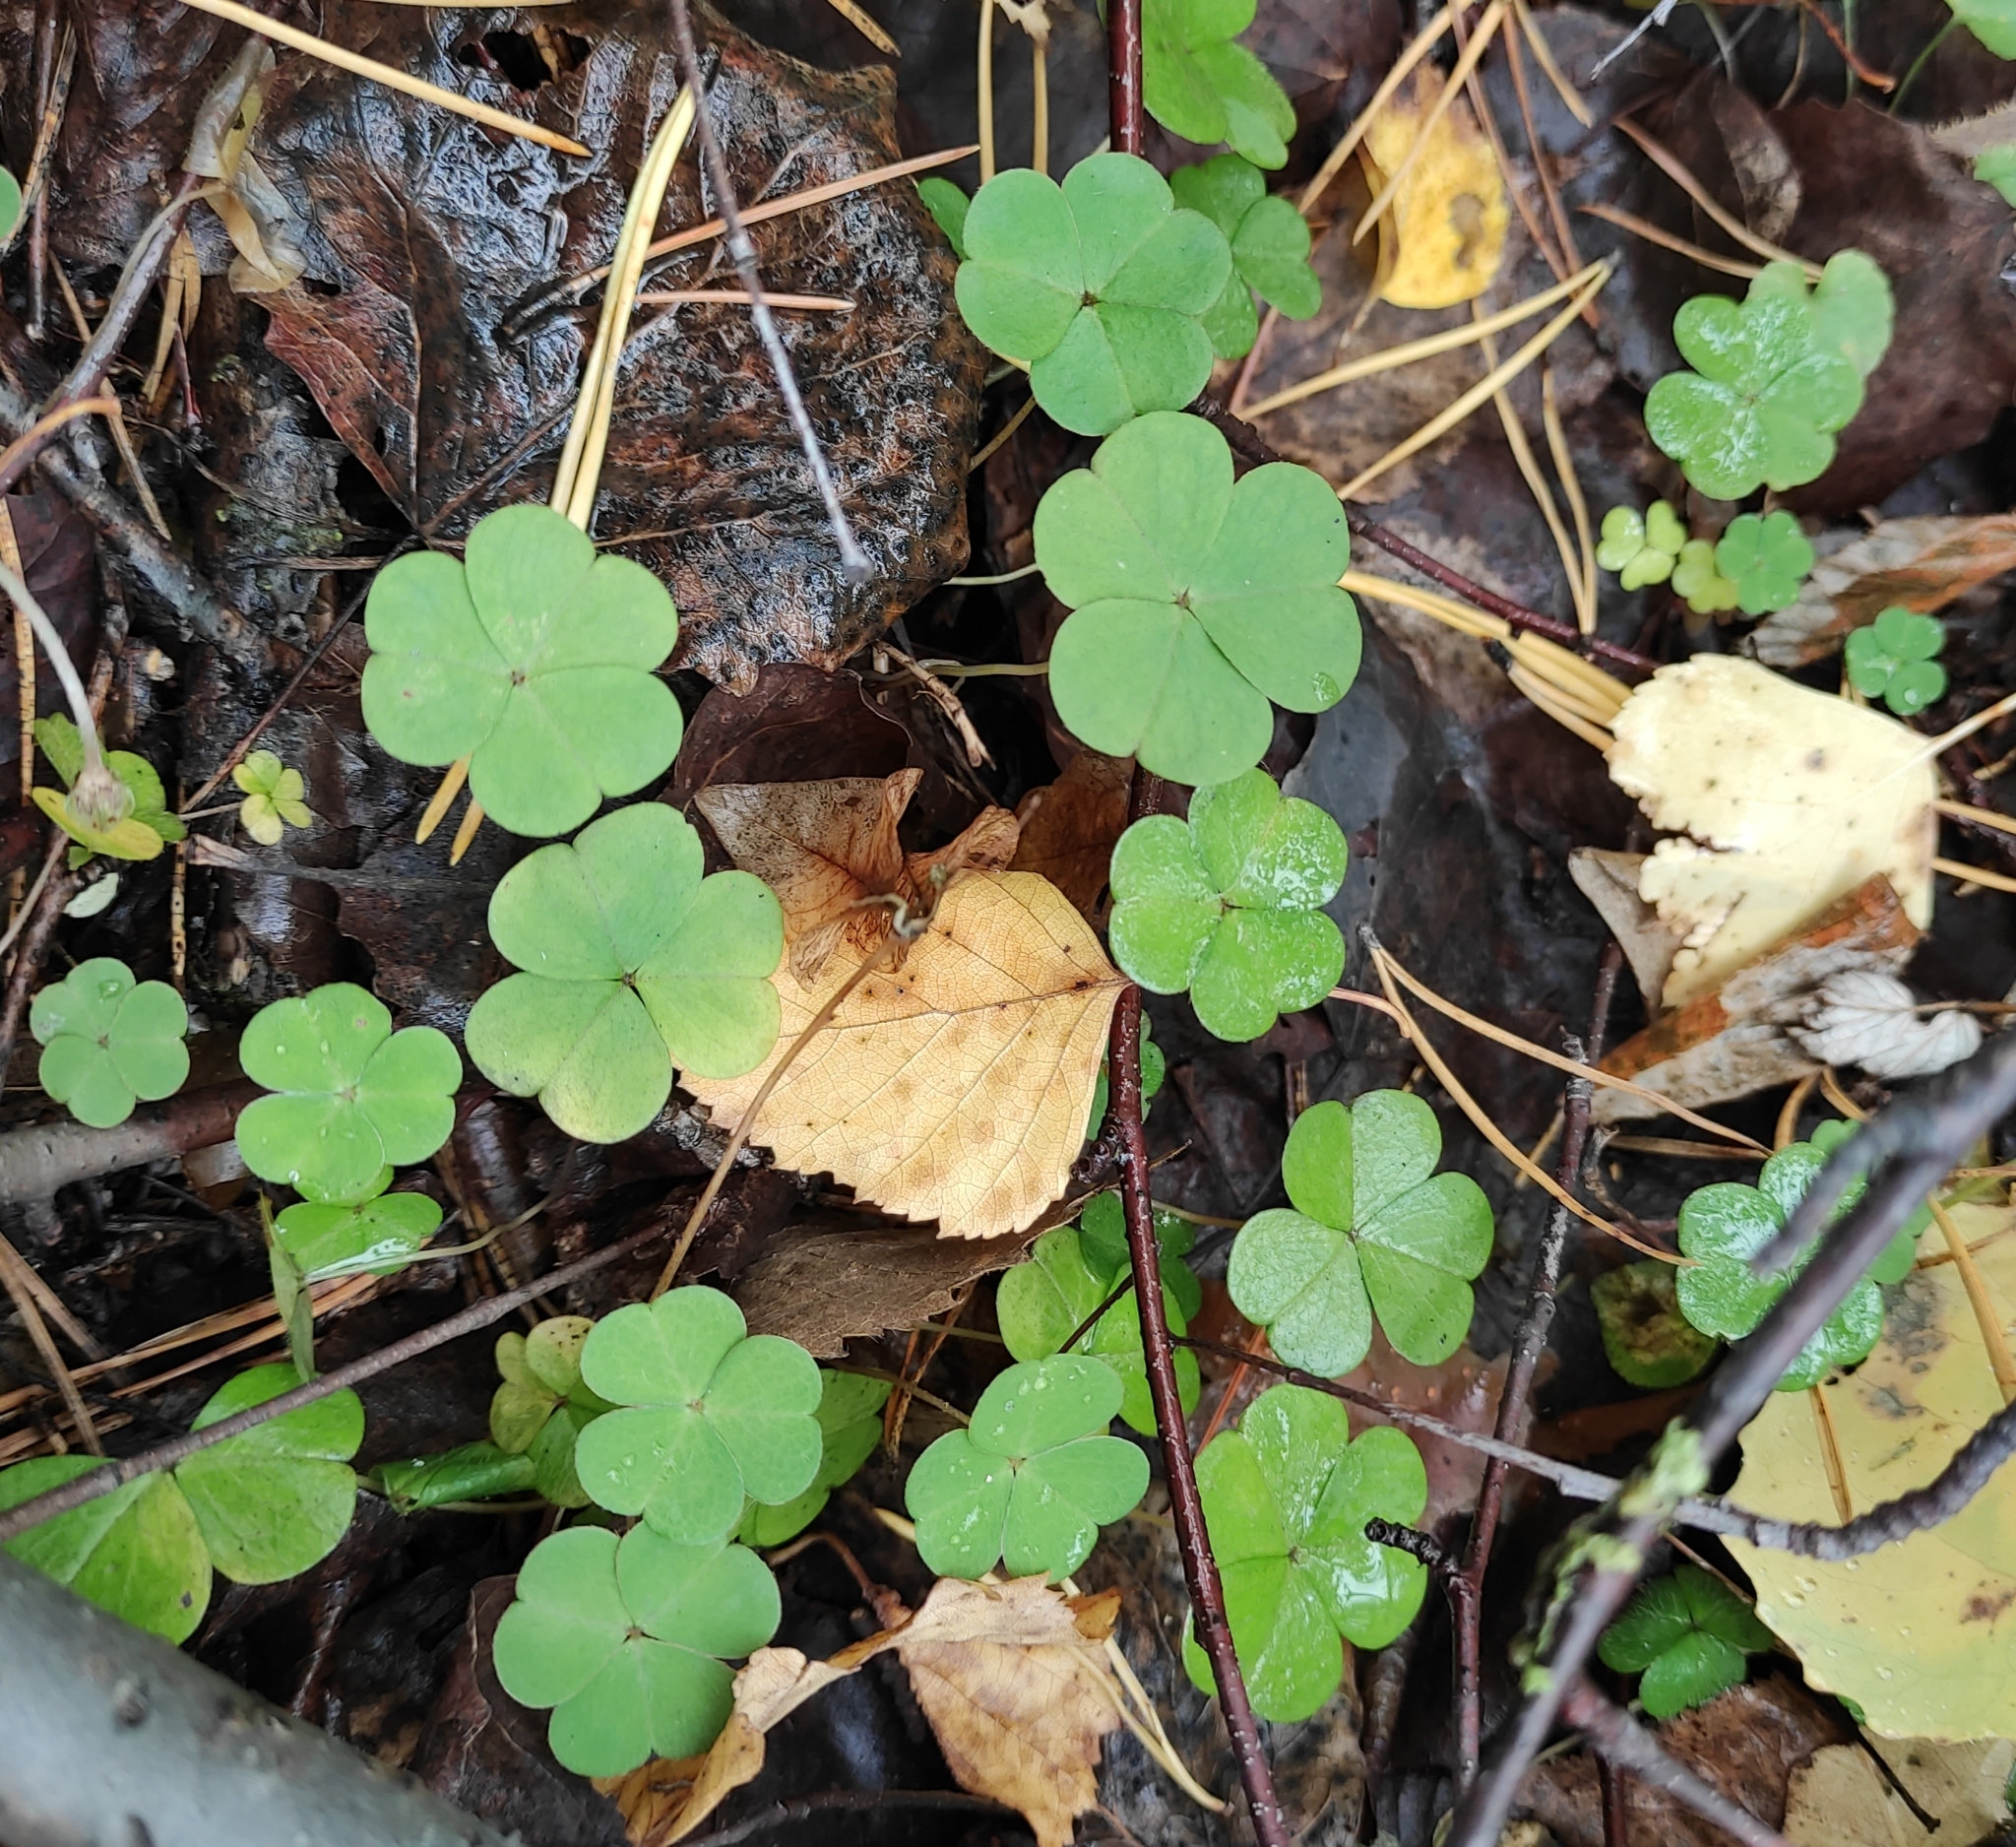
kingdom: Plantae
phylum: Tracheophyta
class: Magnoliopsida
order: Oxalidales
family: Oxalidaceae
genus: Oxalis
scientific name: Oxalis acetosella
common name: Wood-sorrel
